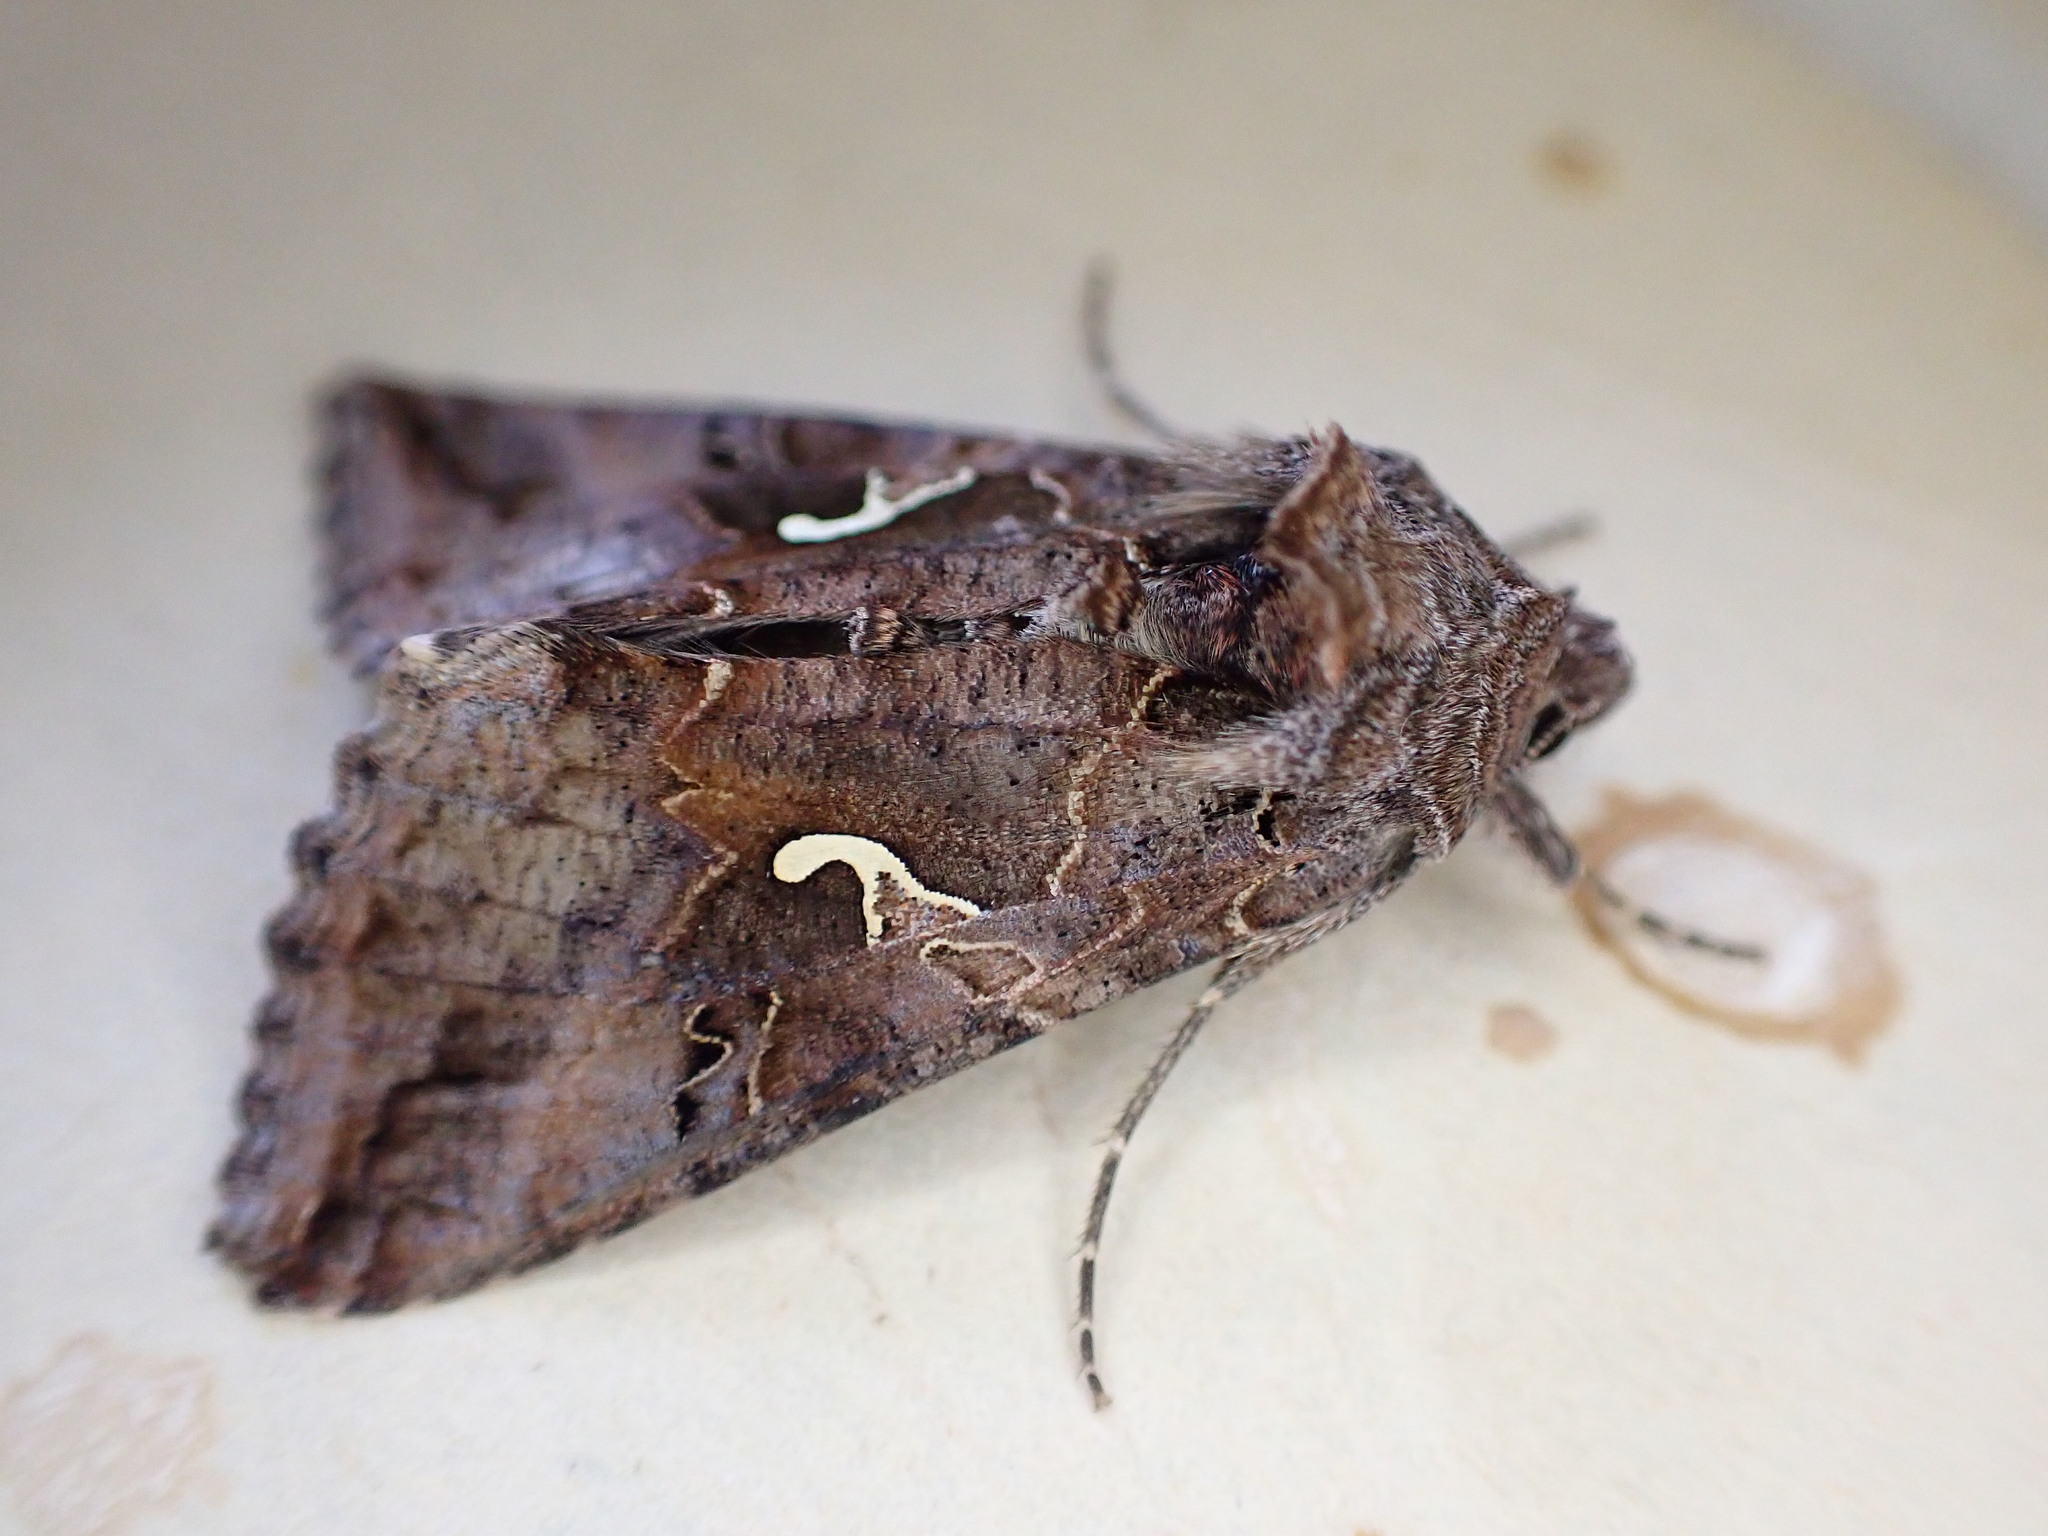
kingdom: Animalia
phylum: Arthropoda
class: Insecta
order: Lepidoptera
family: Noctuidae
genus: Autographa
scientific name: Autographa gamma
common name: Silver y
